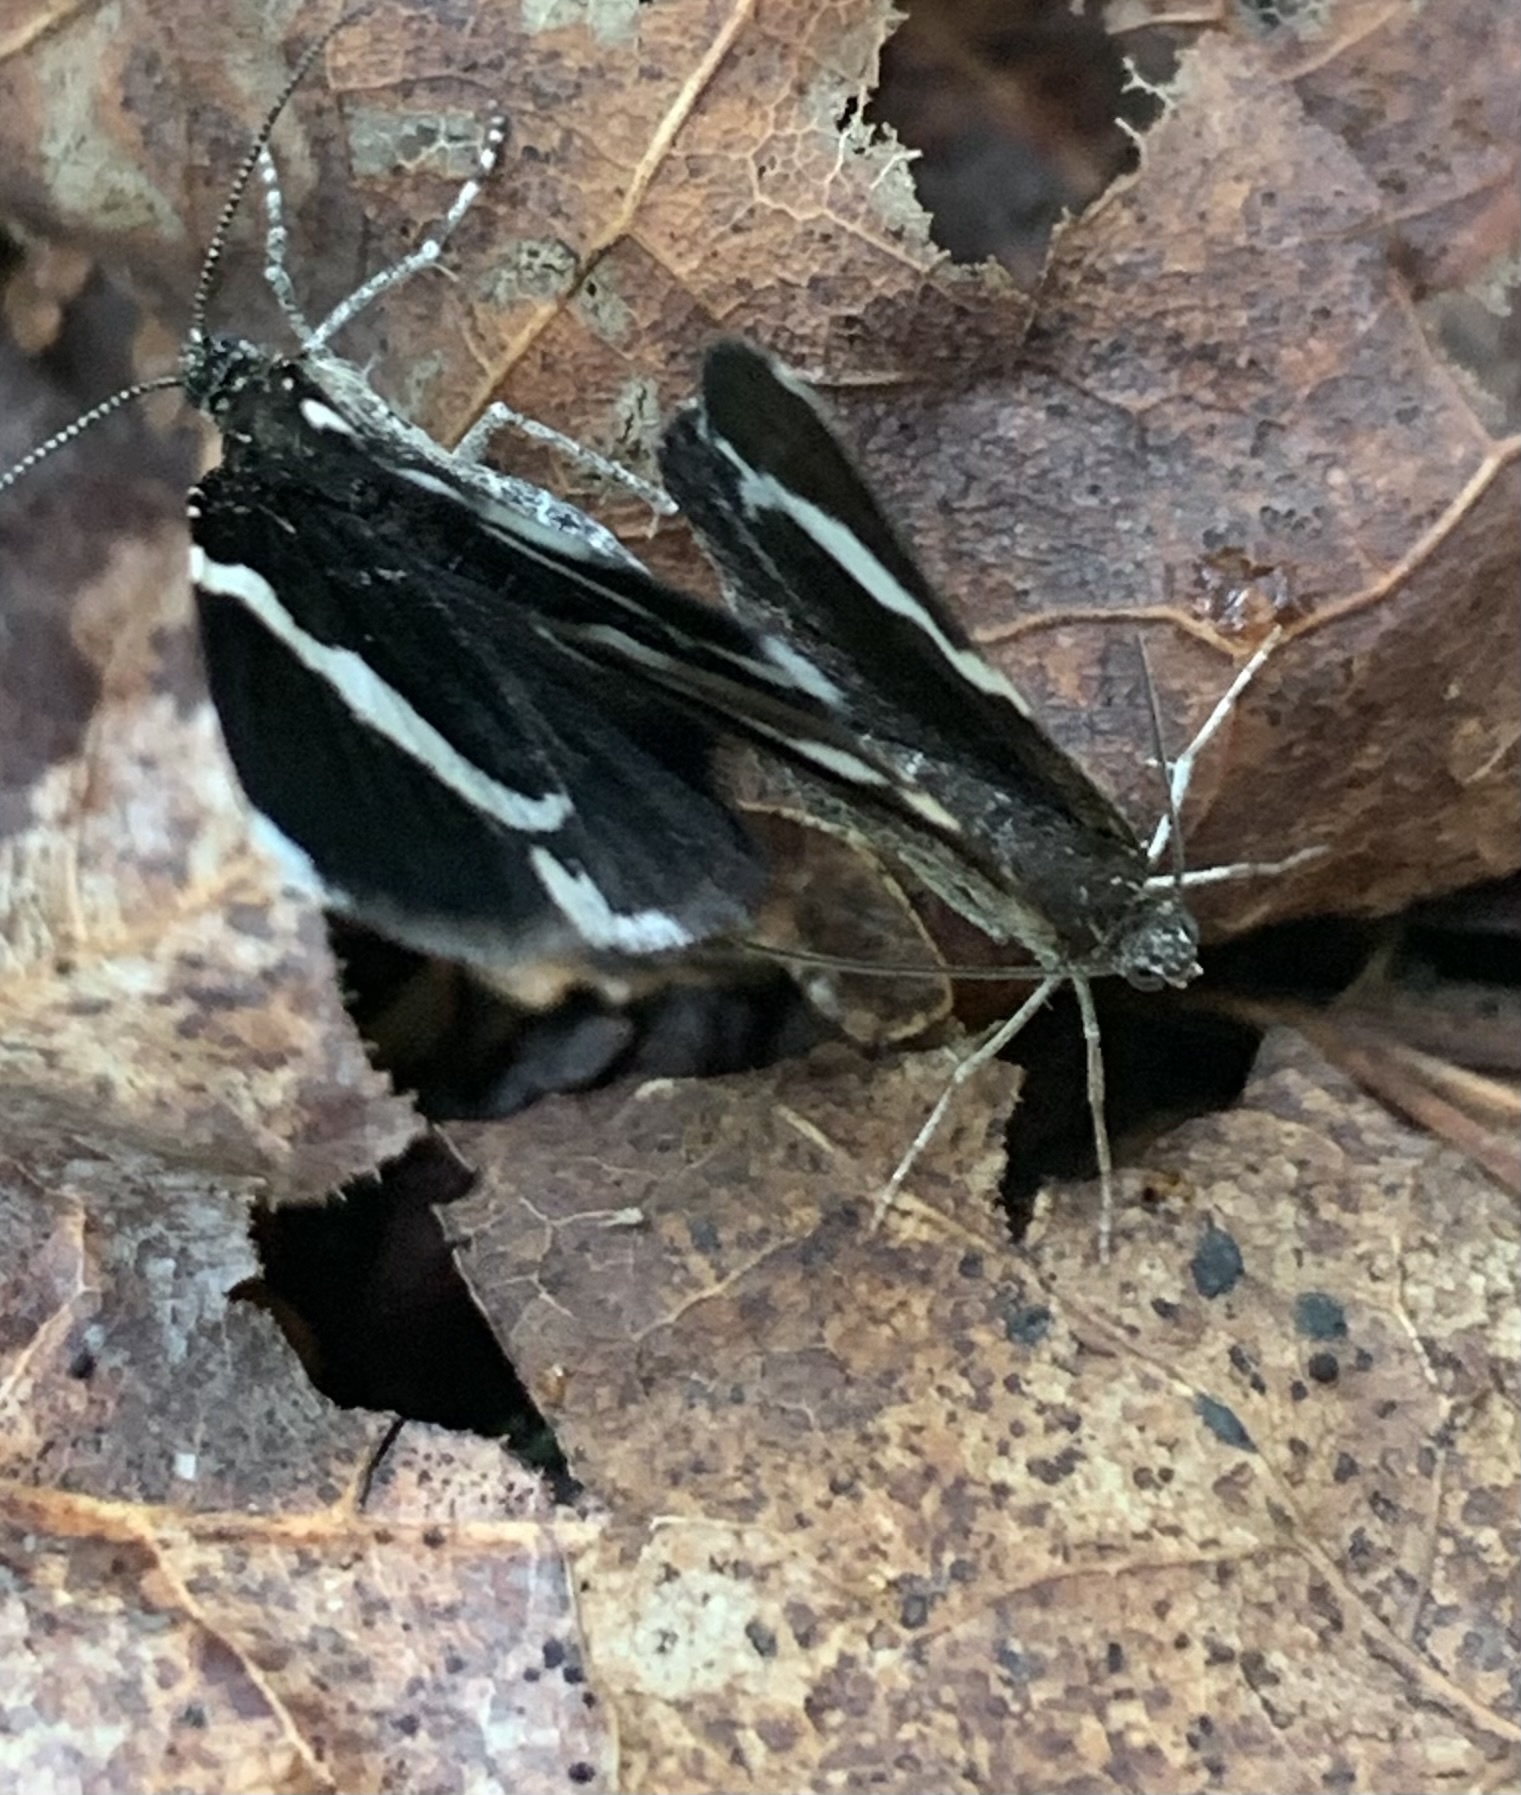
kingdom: Animalia
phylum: Arthropoda
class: Insecta
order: Lepidoptera
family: Geometridae
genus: Trichodezia
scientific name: Trichodezia albovittata
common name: White striped black
